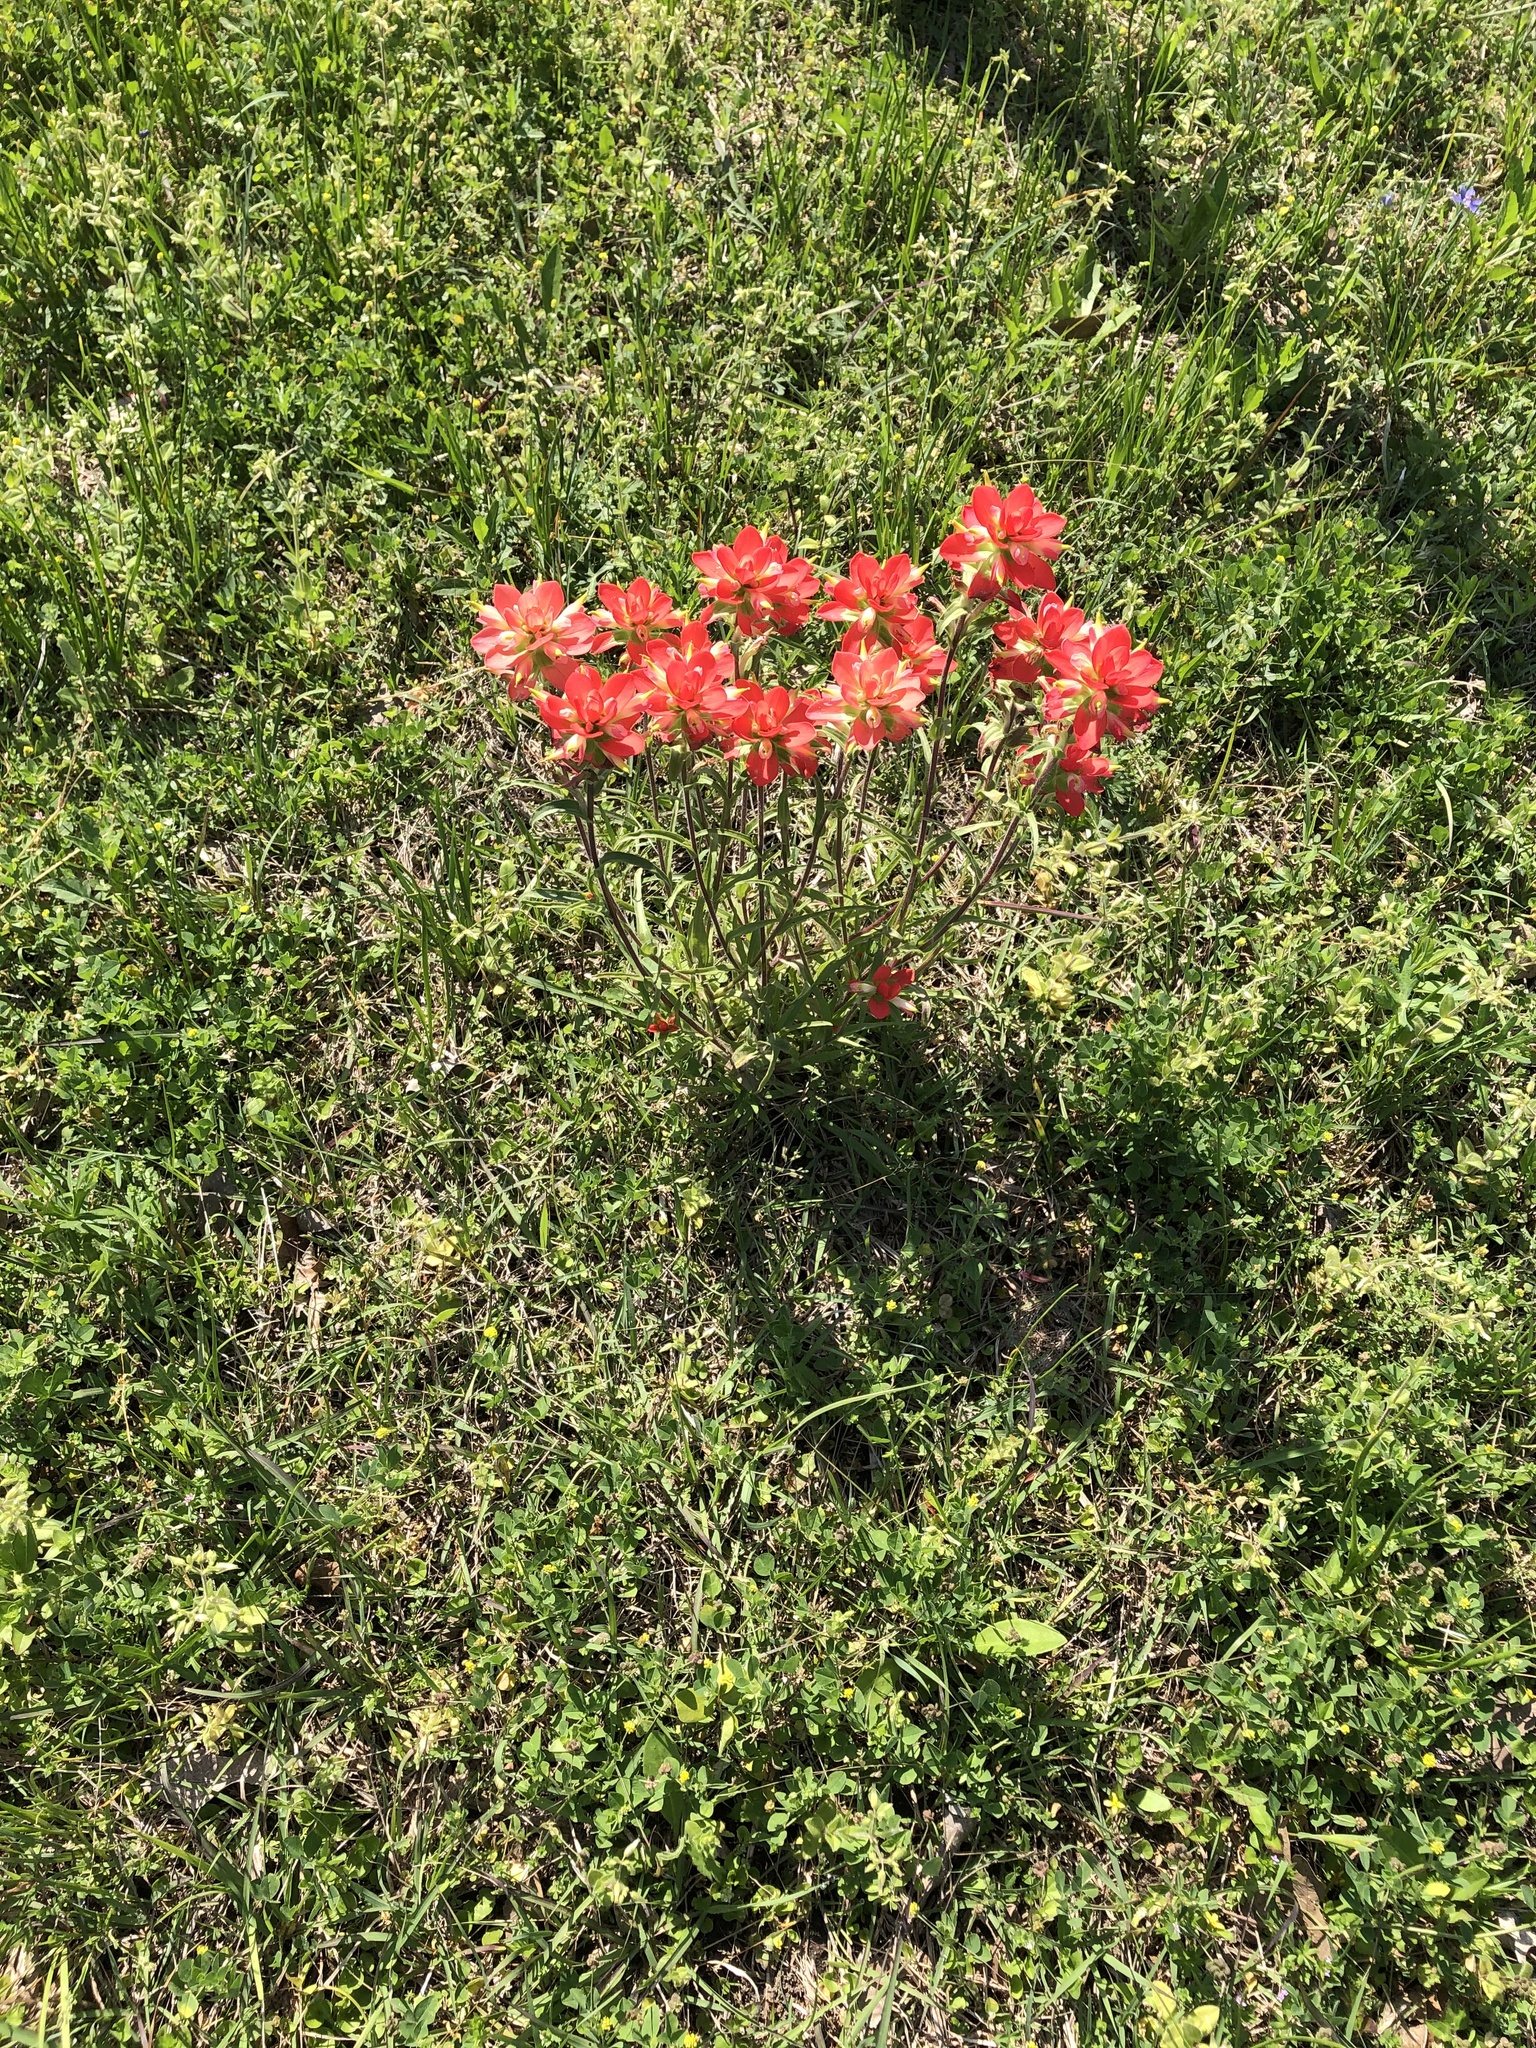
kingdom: Plantae
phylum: Tracheophyta
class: Magnoliopsida
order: Lamiales
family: Orobanchaceae
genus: Castilleja
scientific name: Castilleja indivisa
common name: Texas paintbrush
